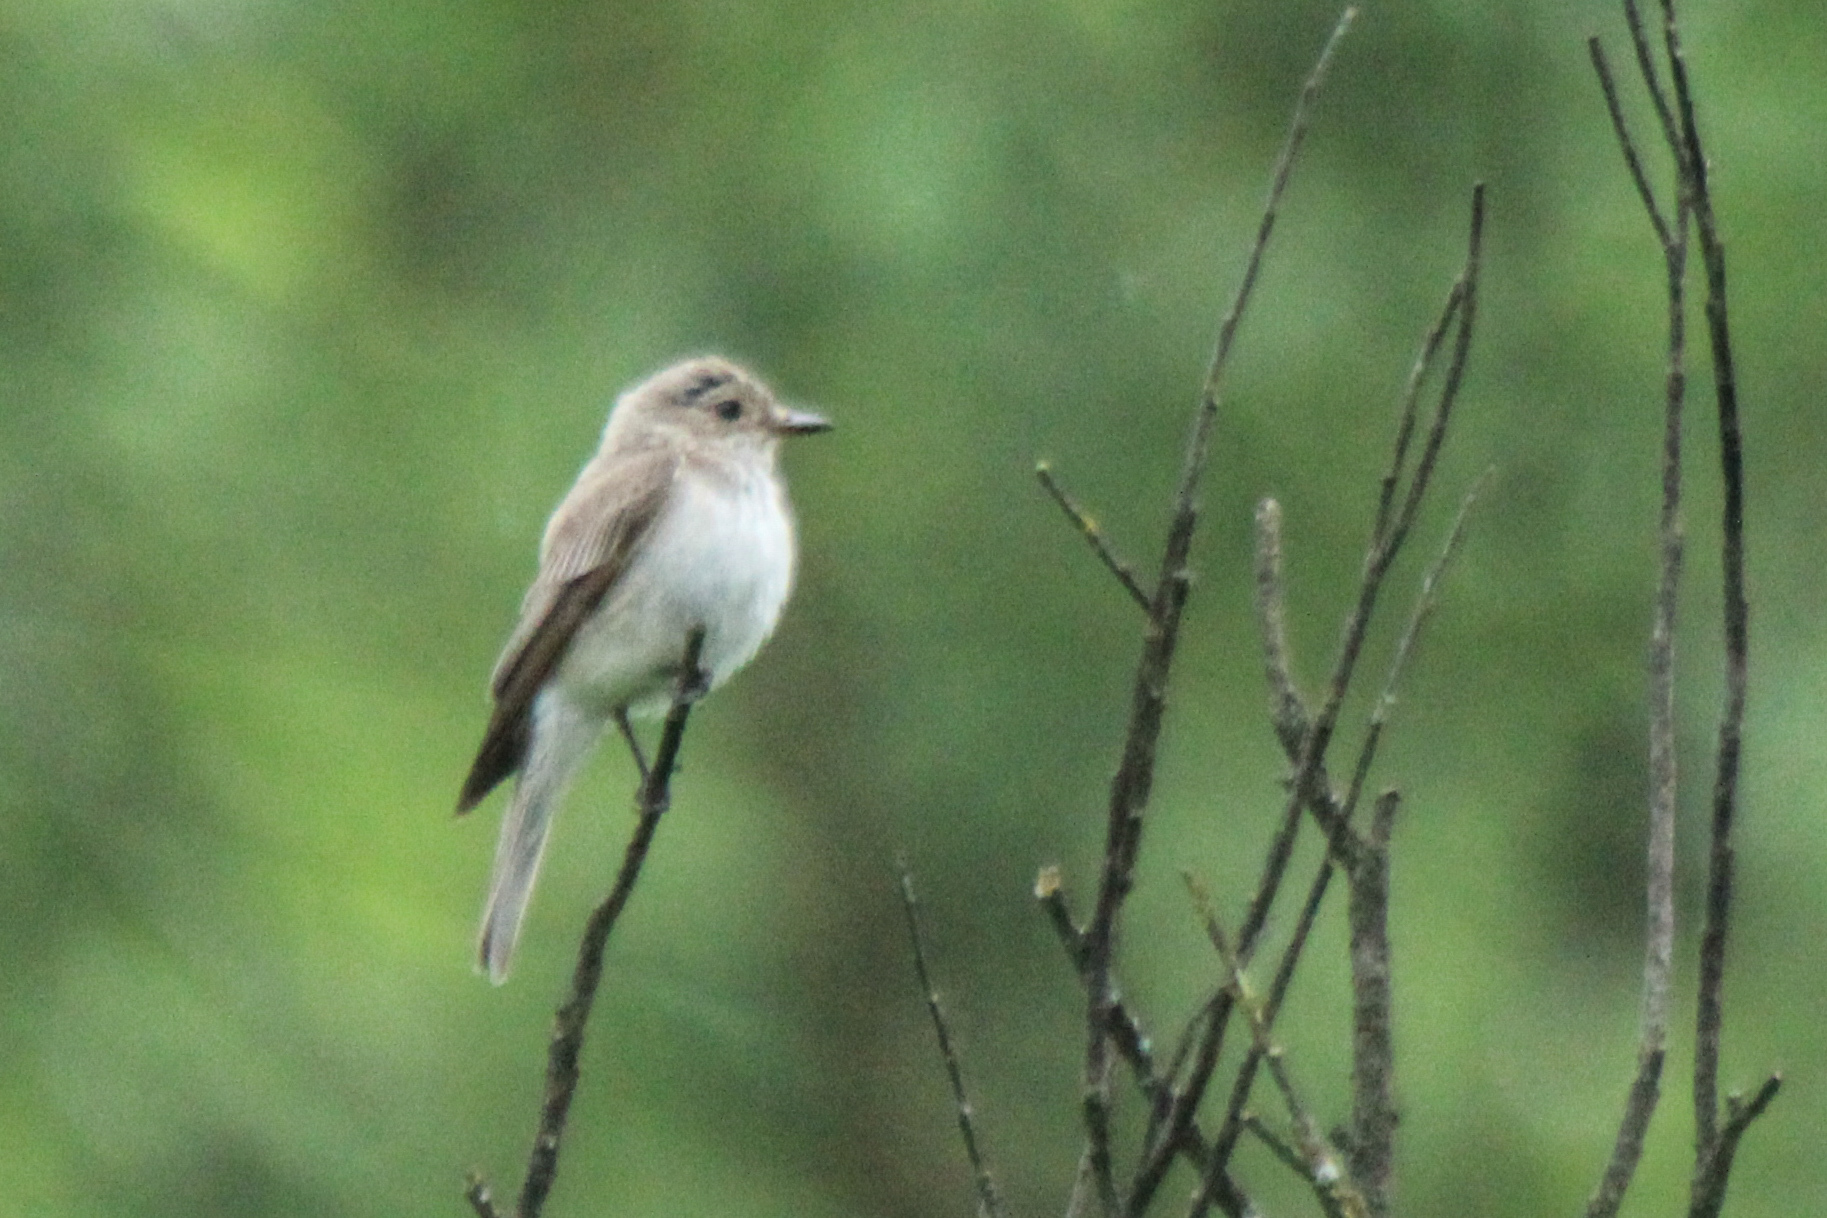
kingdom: Animalia
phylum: Chordata
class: Aves
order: Passeriformes
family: Muscicapidae
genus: Muscicapa
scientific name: Muscicapa striata
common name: Spotted flycatcher
